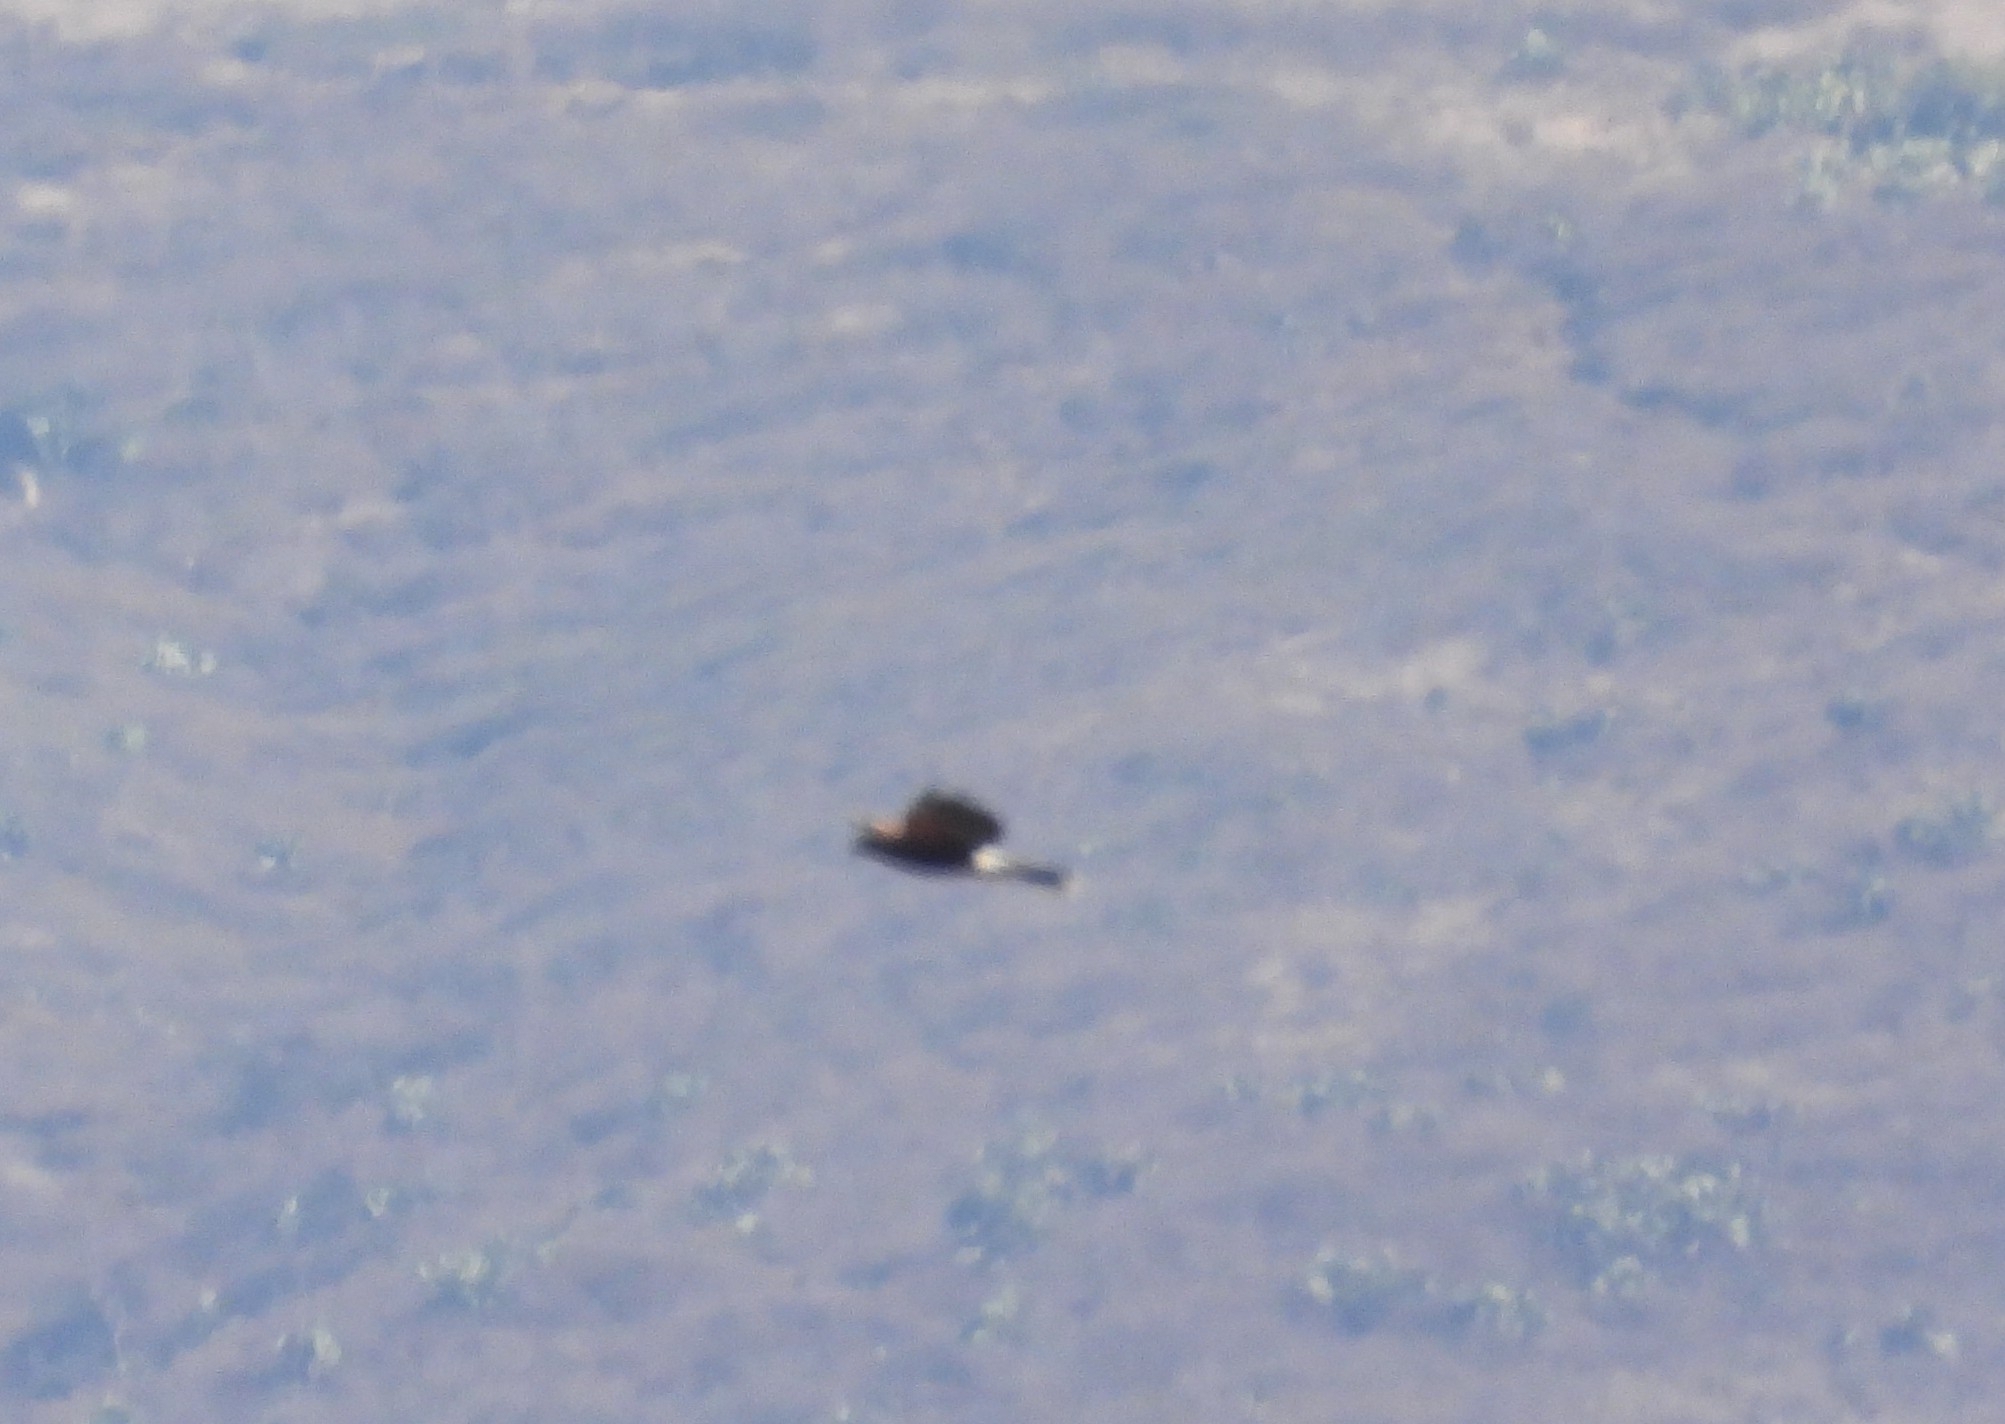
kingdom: Animalia
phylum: Chordata
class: Aves
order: Accipitriformes
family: Accipitridae
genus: Parabuteo
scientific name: Parabuteo unicinctus
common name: Harris's hawk
